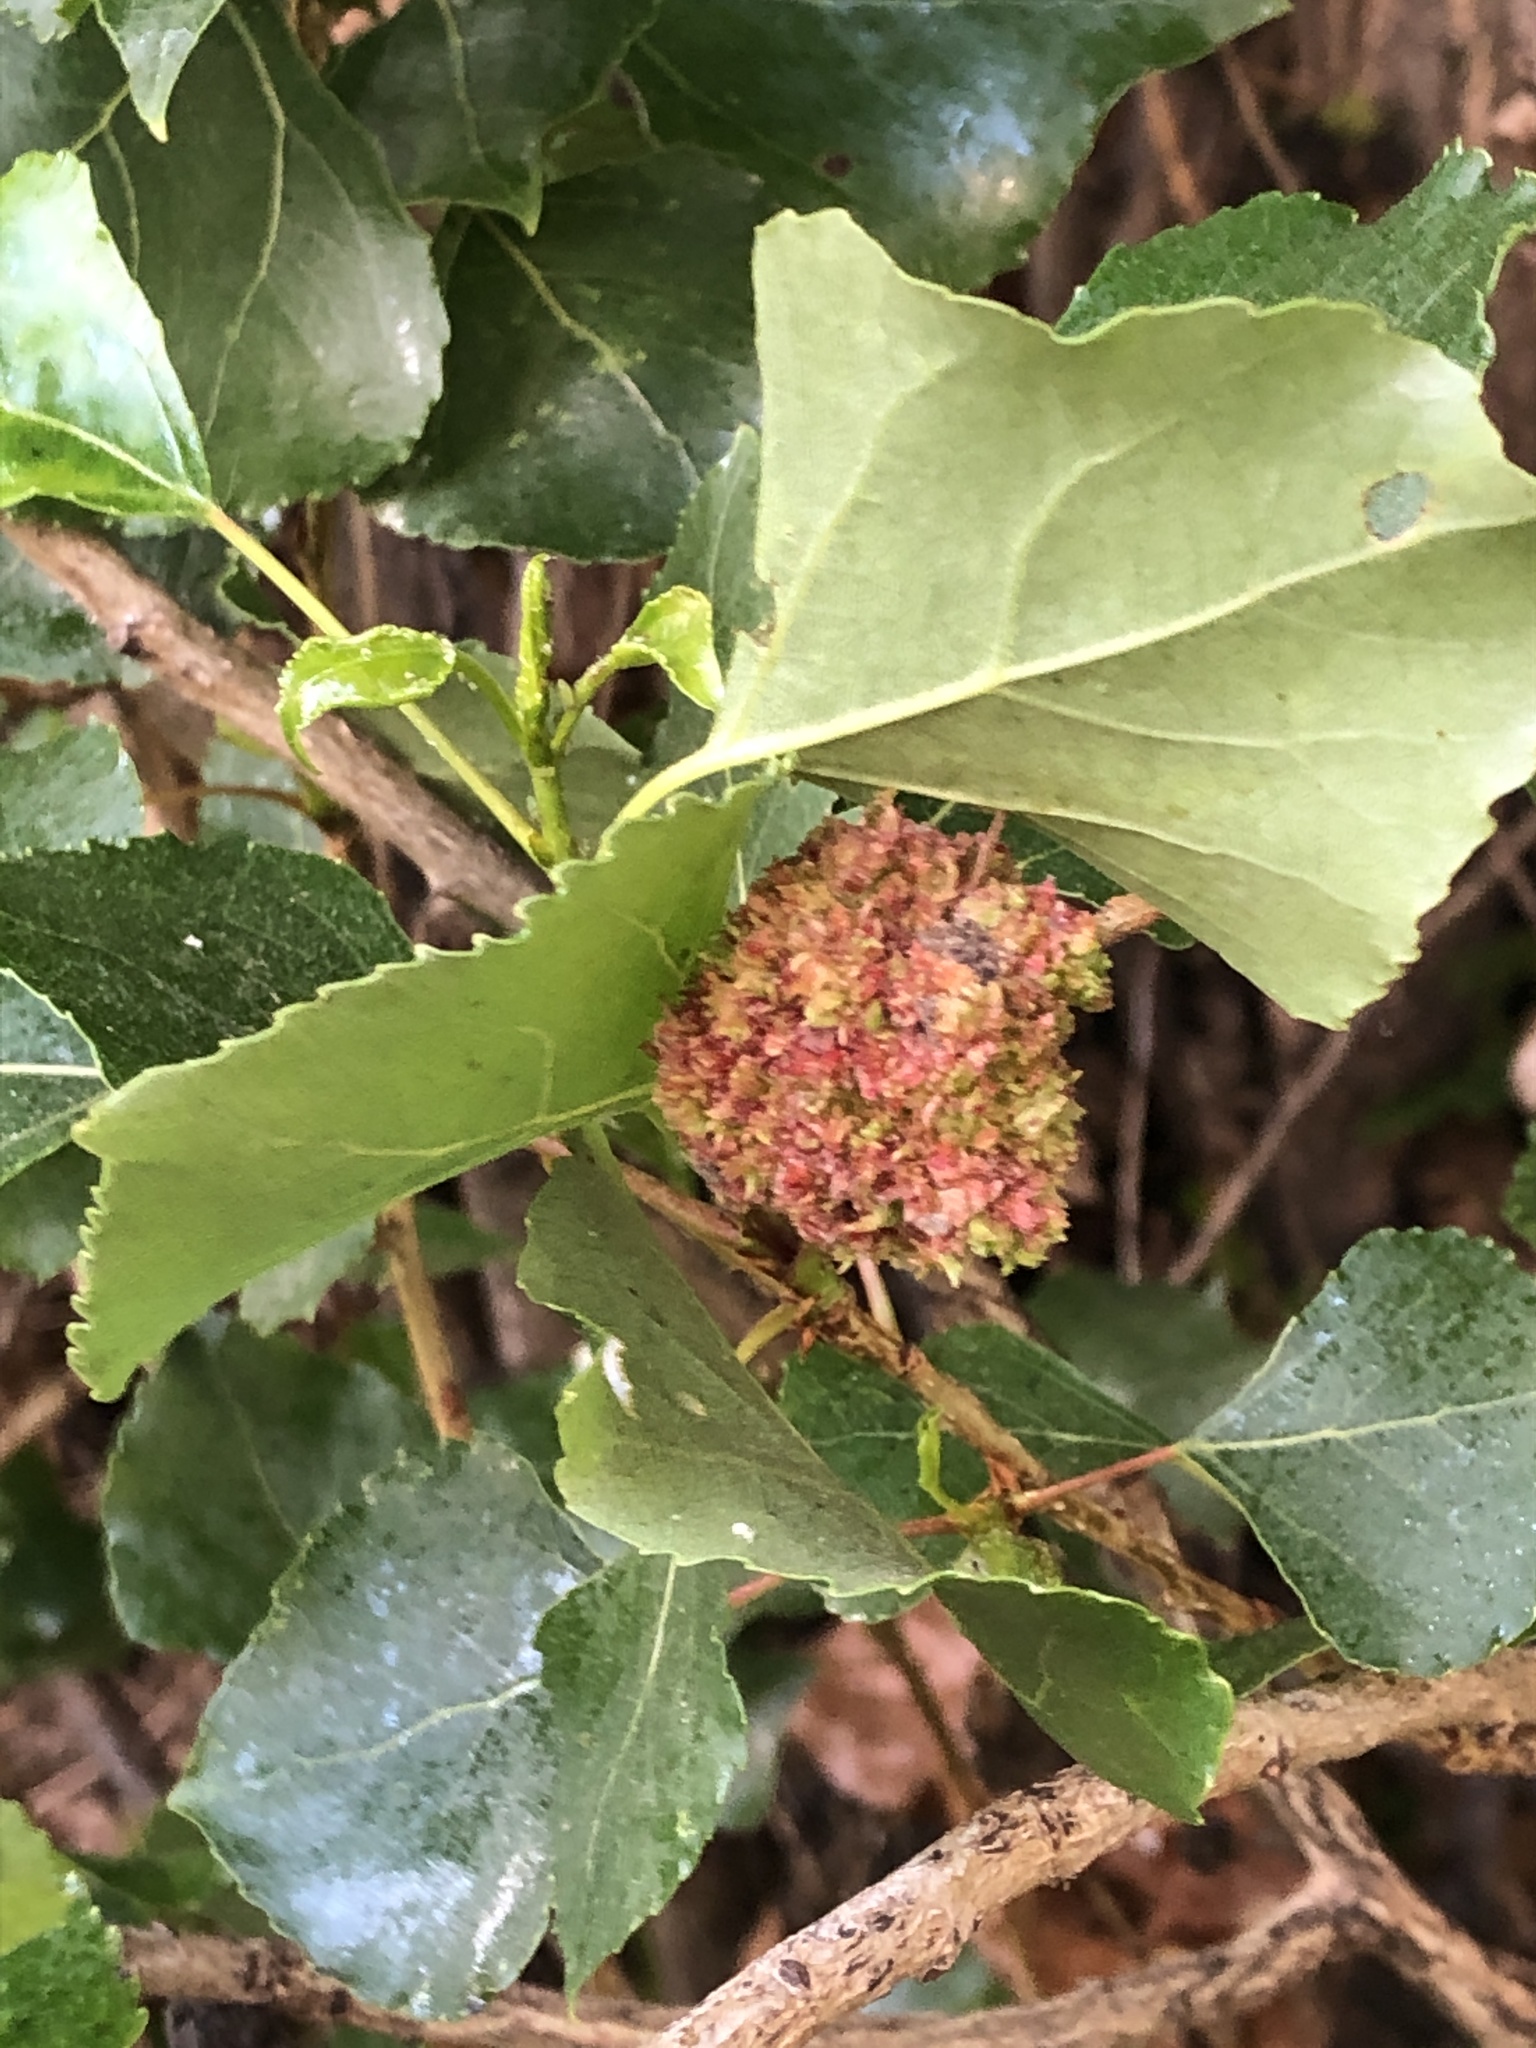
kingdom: Animalia
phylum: Arthropoda
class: Arachnida
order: Trombidiformes
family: Eriophyidae
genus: Aceria
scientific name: Aceria populi
